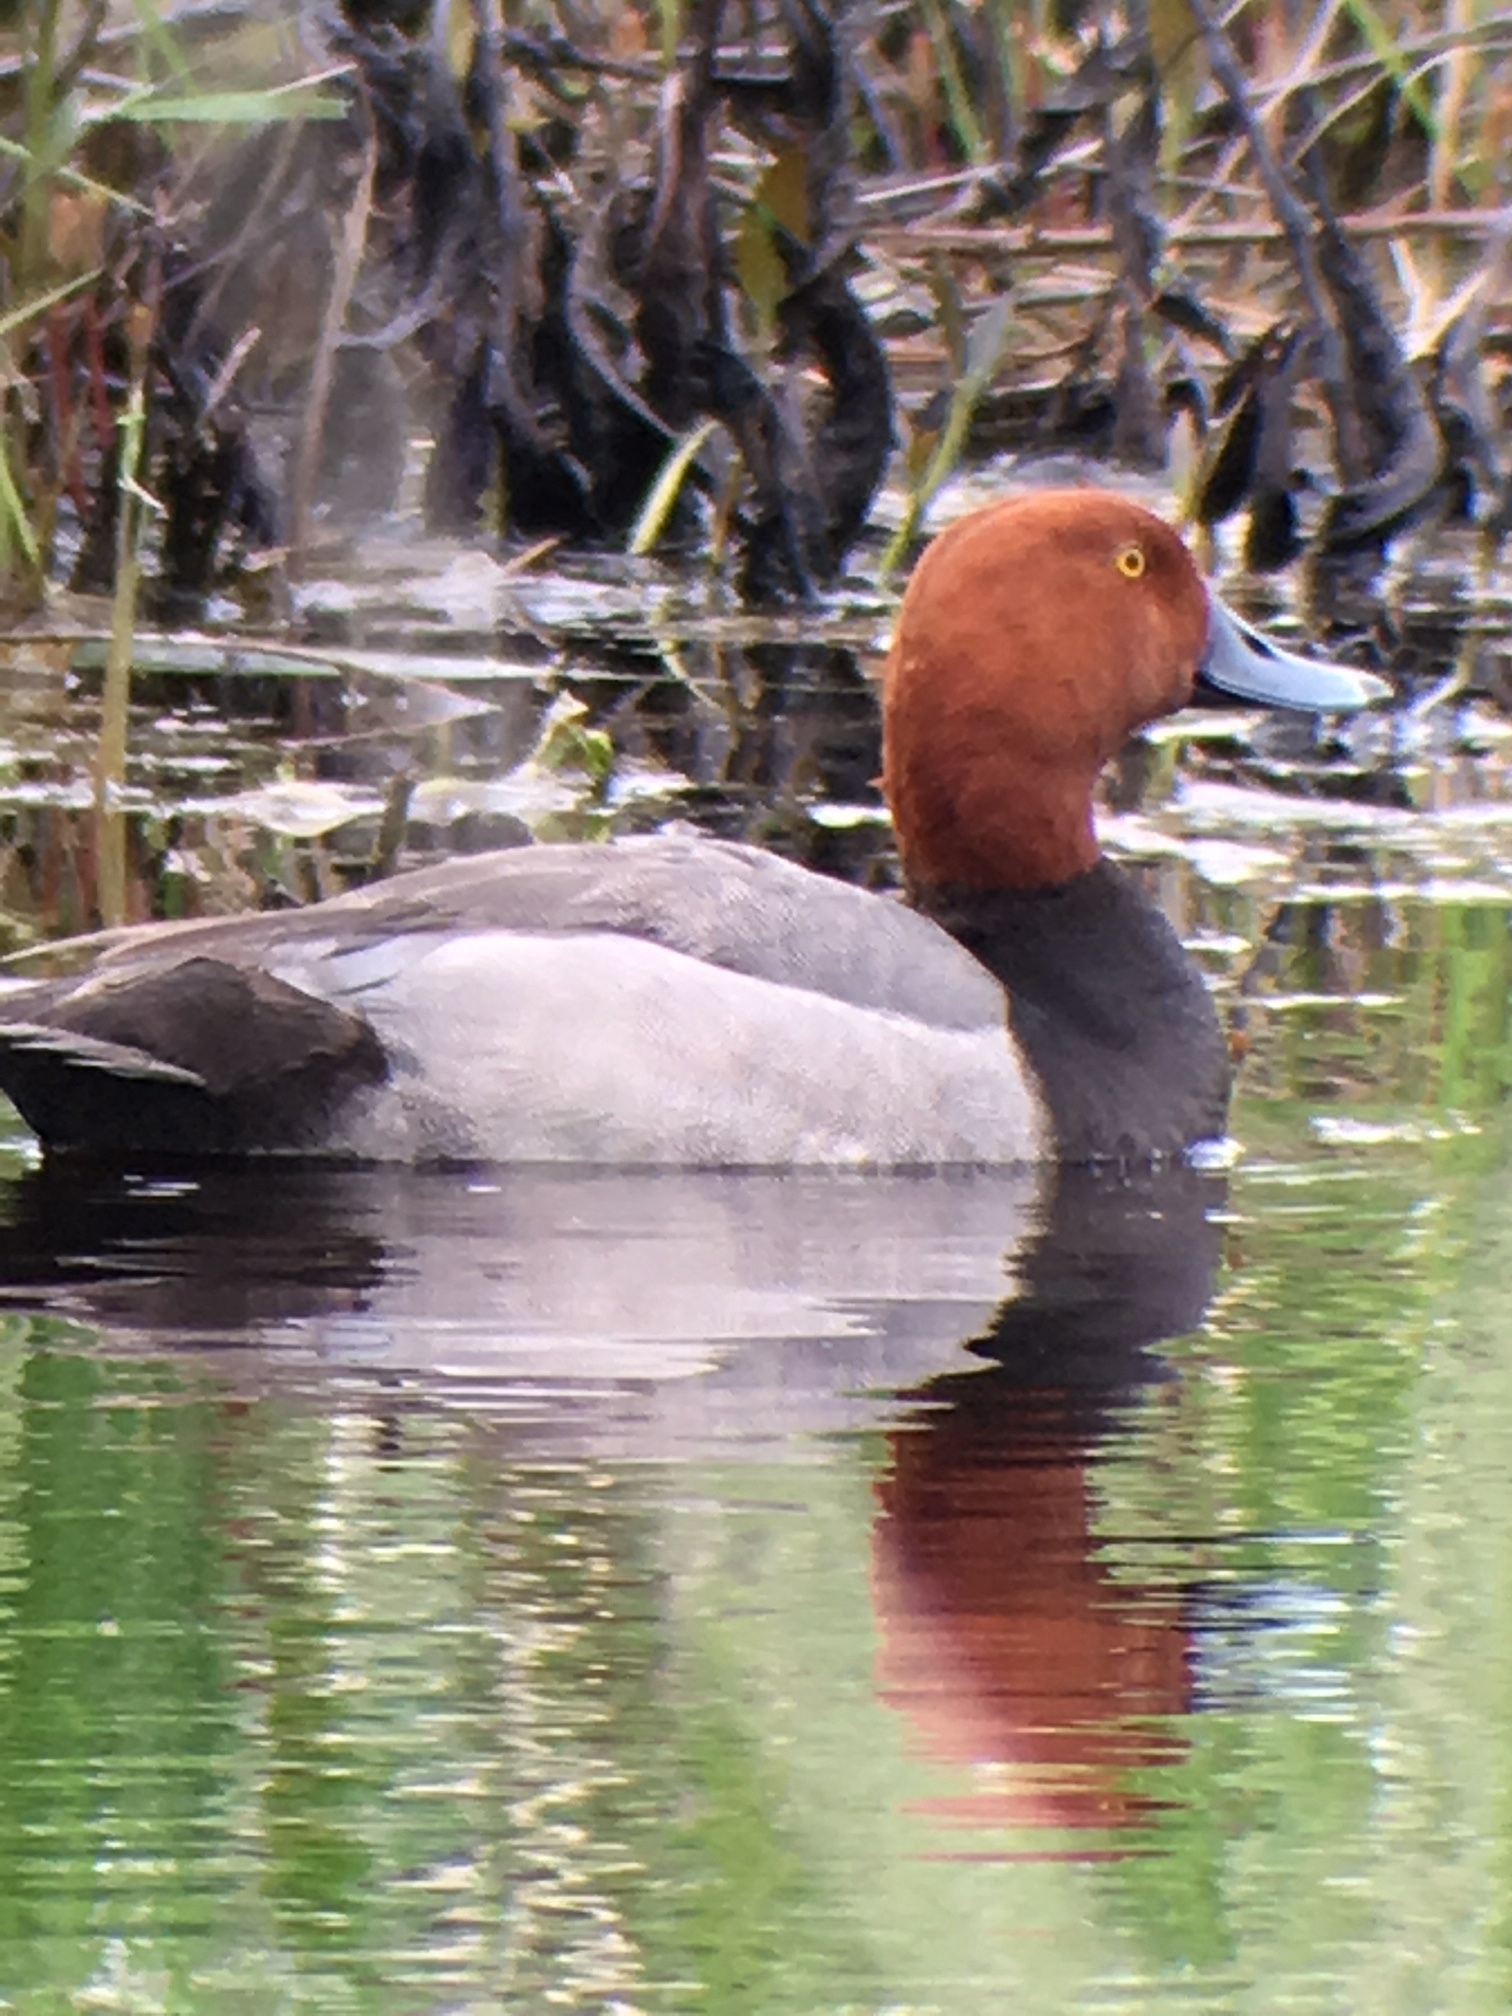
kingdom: Animalia
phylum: Chordata
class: Aves
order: Anseriformes
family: Anatidae
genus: Aythya
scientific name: Aythya americana
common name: Redhead
